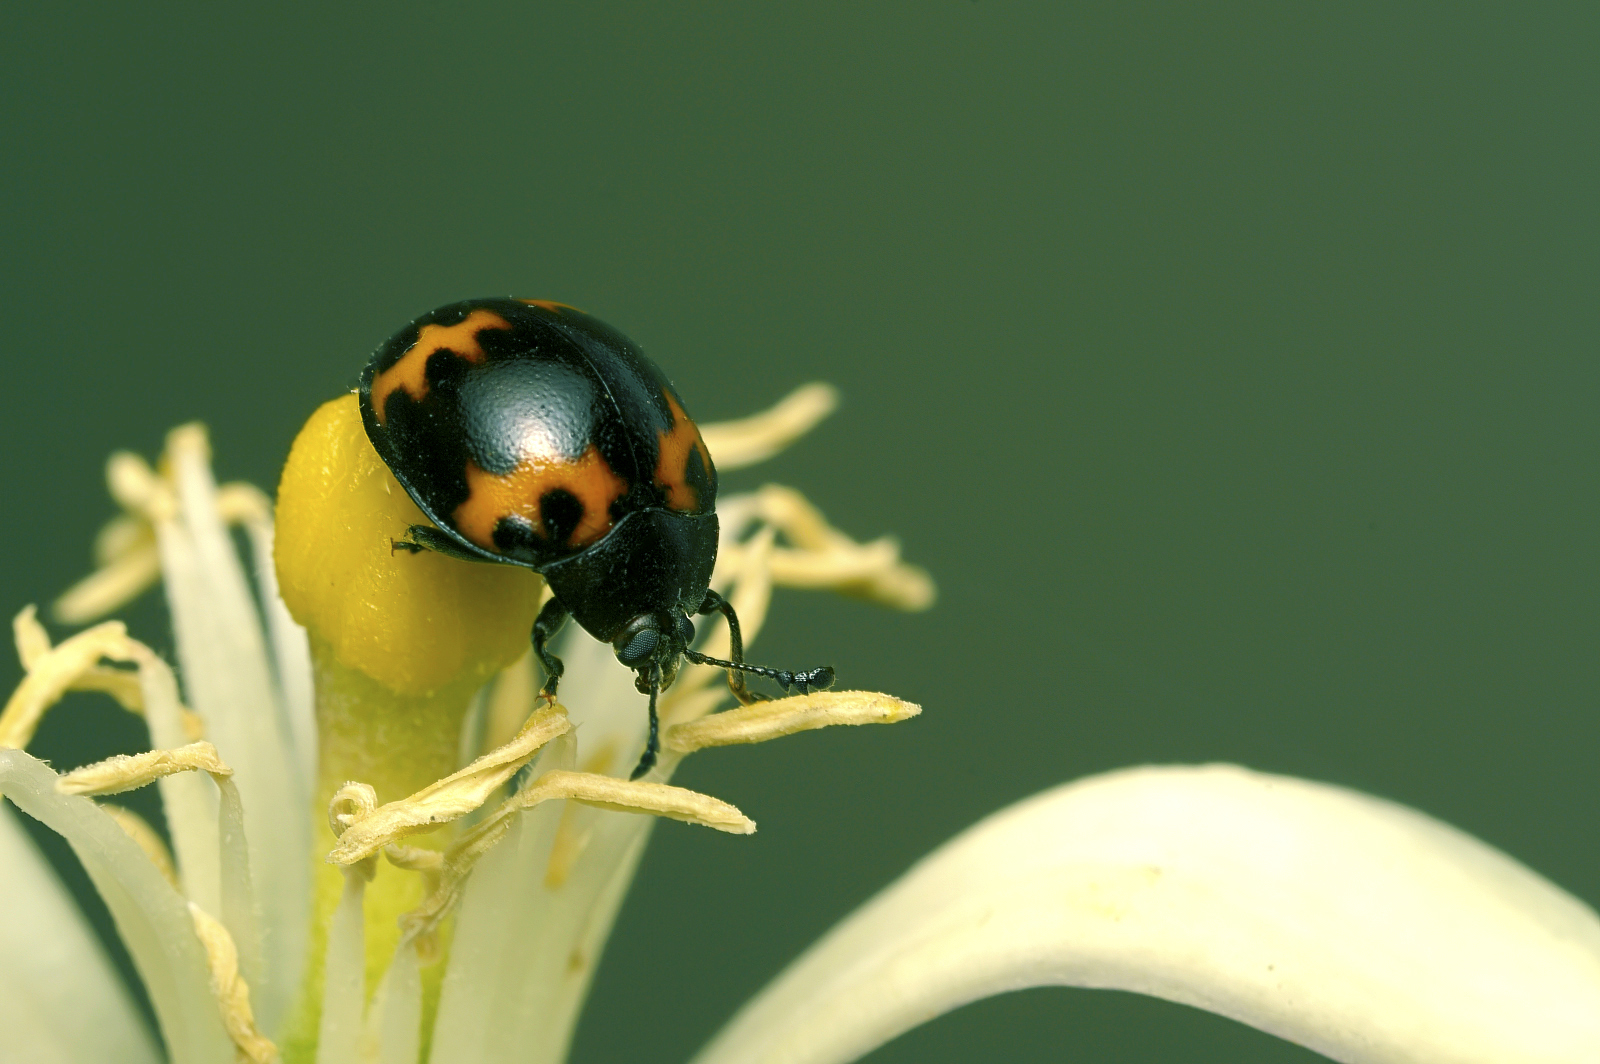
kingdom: Animalia
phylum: Arthropoda
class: Insecta
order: Coleoptera
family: Endomychidae
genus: Beccariola
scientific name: Beccariola
